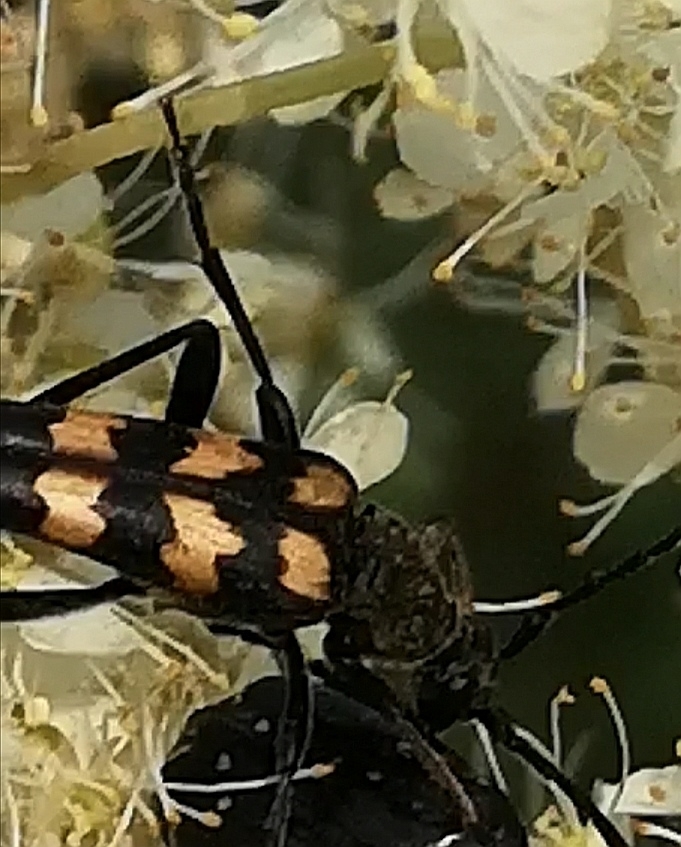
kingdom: Animalia
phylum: Arthropoda
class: Insecta
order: Coleoptera
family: Cerambycidae
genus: Leptura
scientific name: Leptura quadrifasciata
